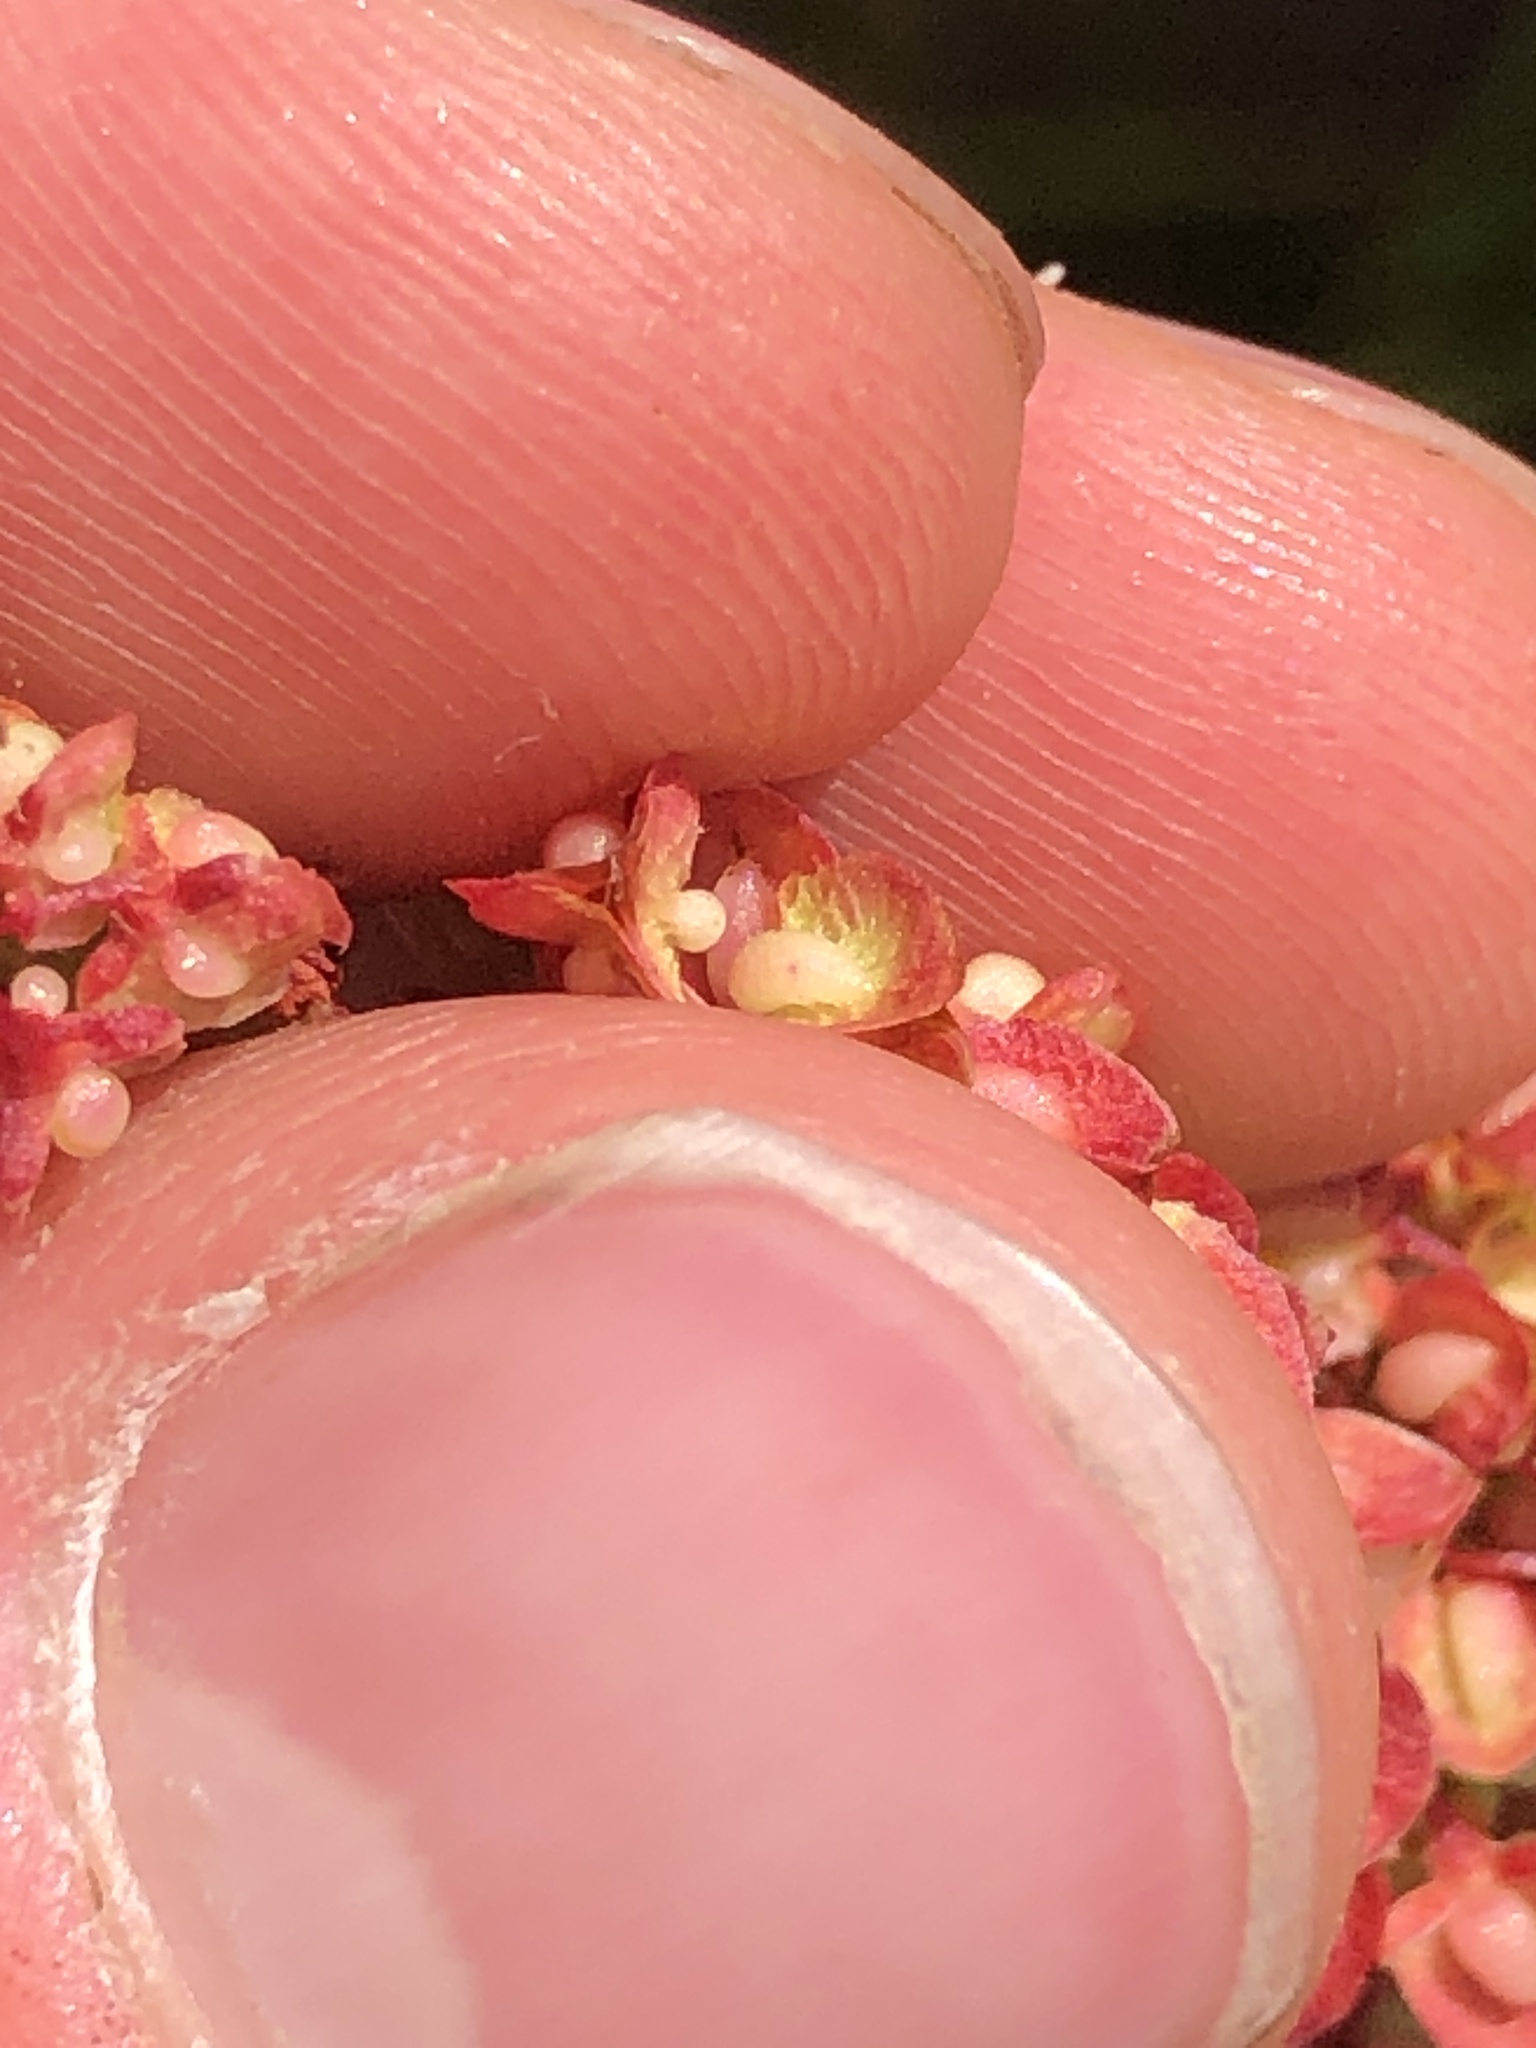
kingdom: Plantae
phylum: Tracheophyta
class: Magnoliopsida
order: Caryophyllales
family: Polygonaceae
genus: Rumex
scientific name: Rumex crispus
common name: Curled dock
